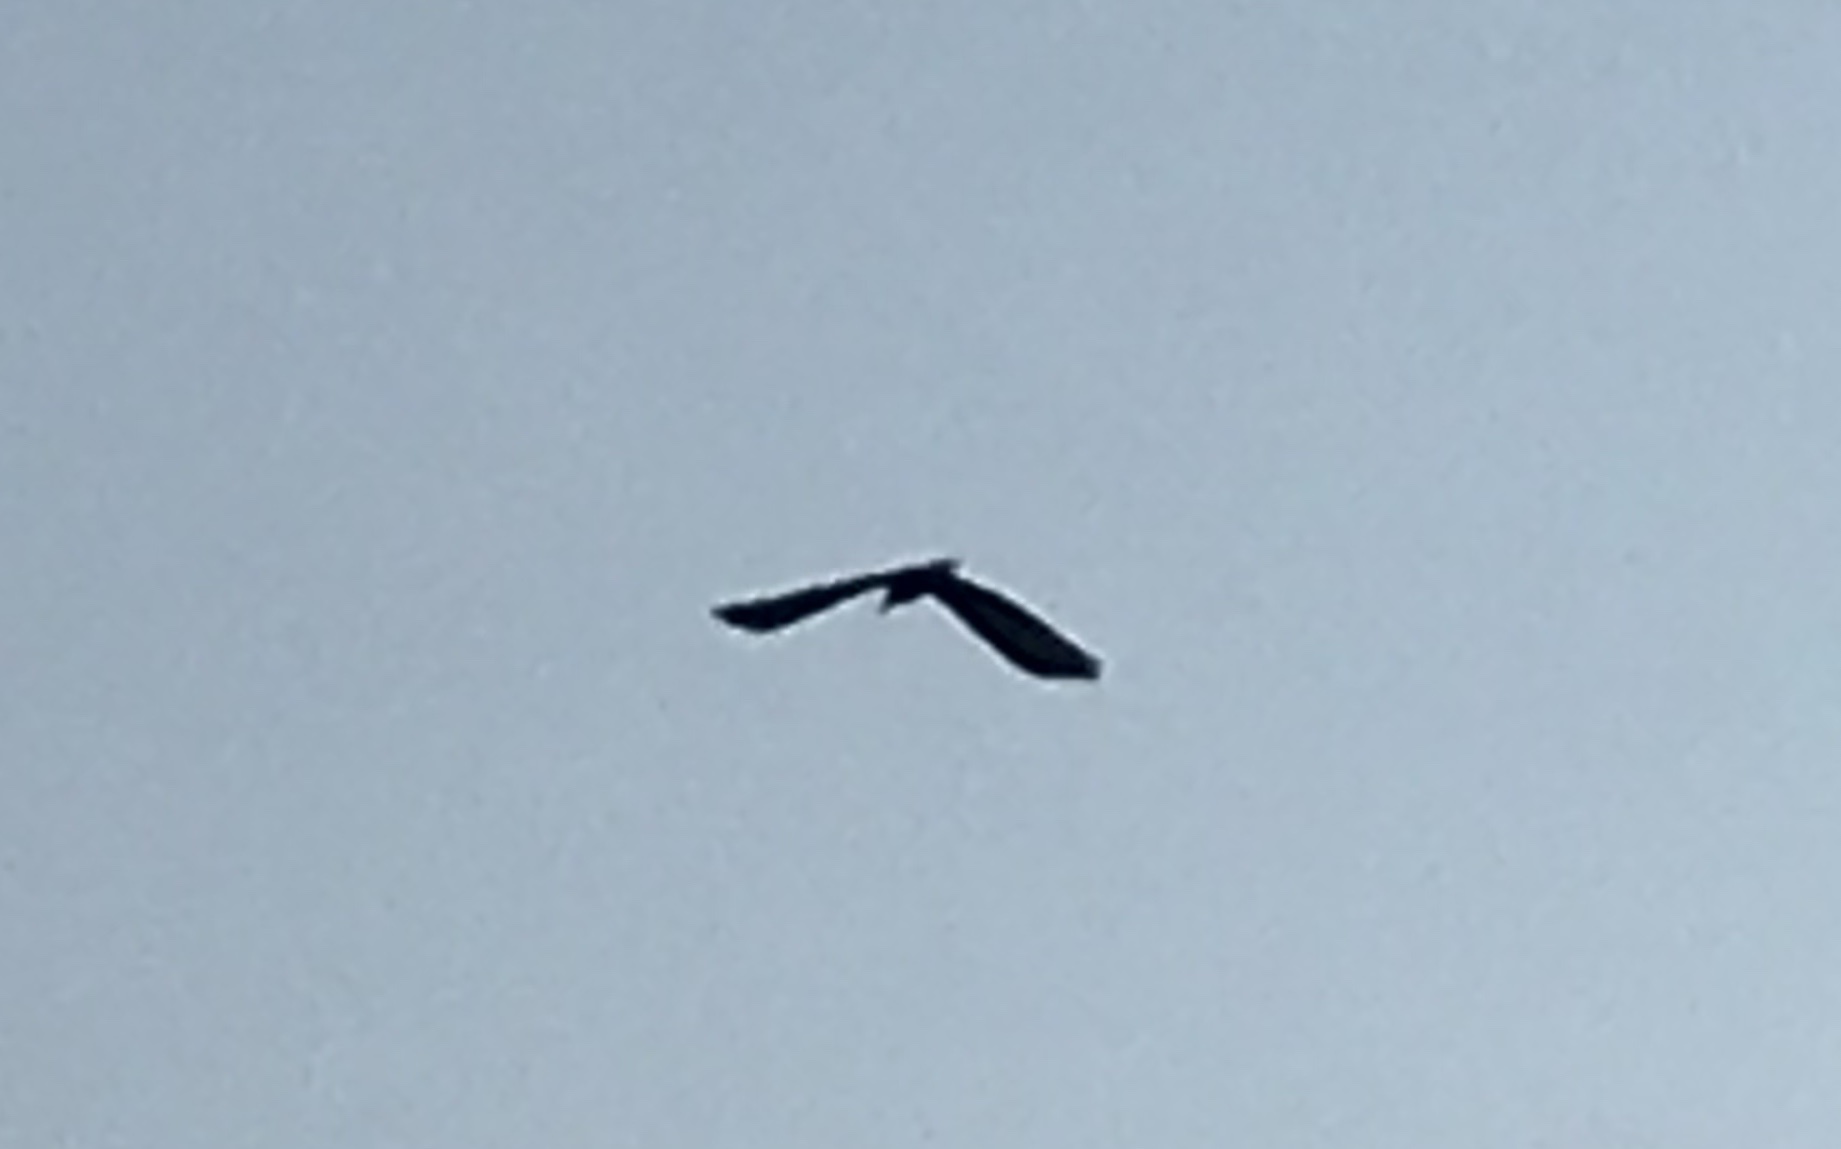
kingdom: Animalia
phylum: Chordata
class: Aves
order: Accipitriformes
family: Cathartidae
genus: Cathartes
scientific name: Cathartes aura
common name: Turkey vulture
